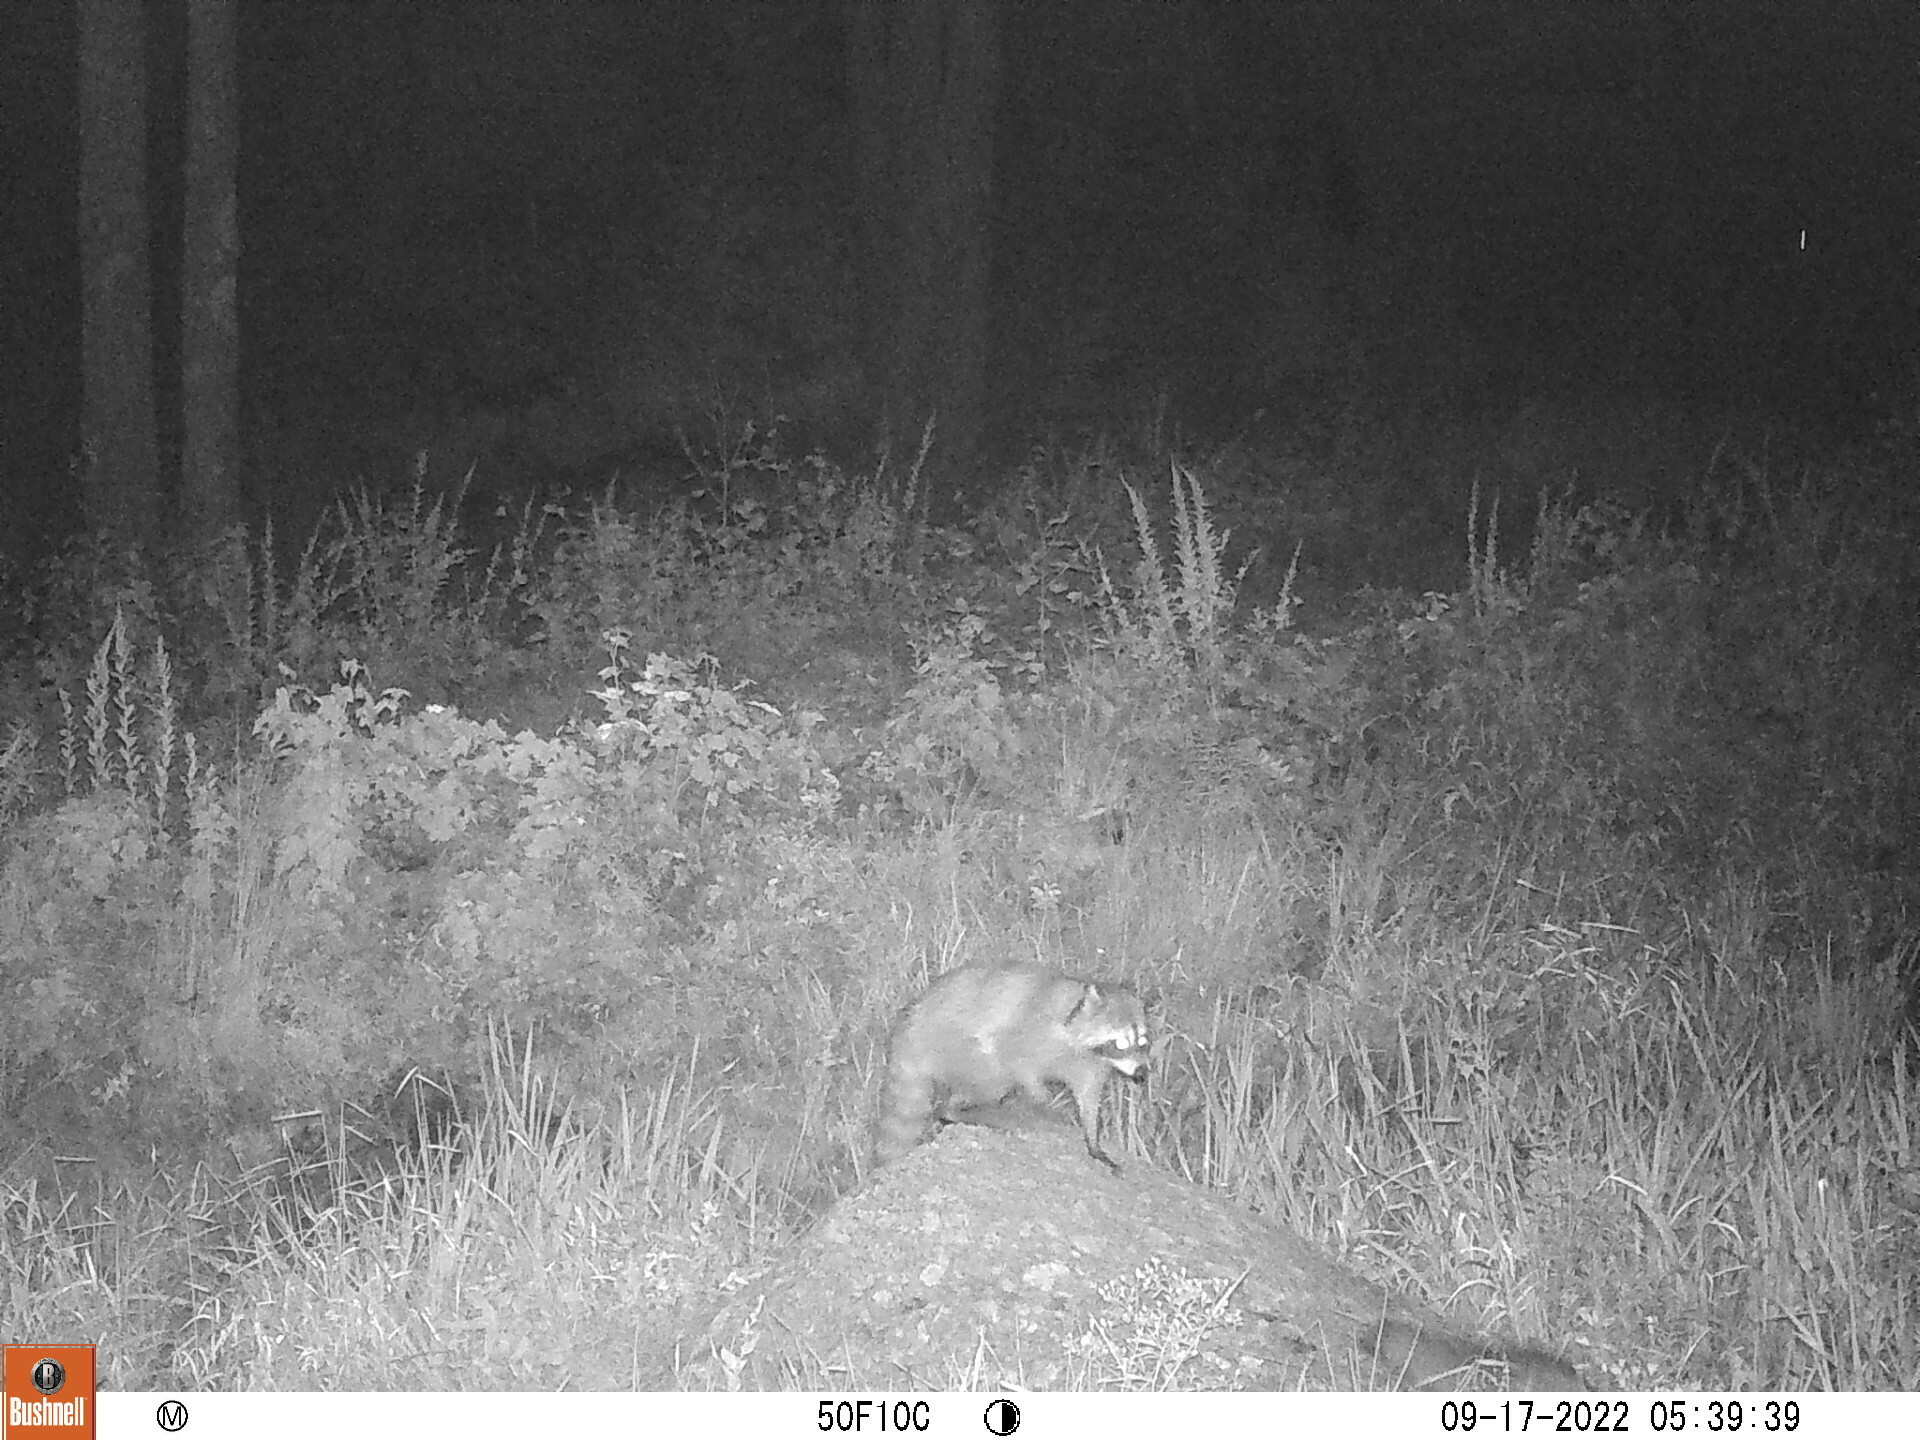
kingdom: Animalia
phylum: Chordata
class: Mammalia
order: Carnivora
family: Procyonidae
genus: Procyon
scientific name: Procyon lotor
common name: Raccoon
